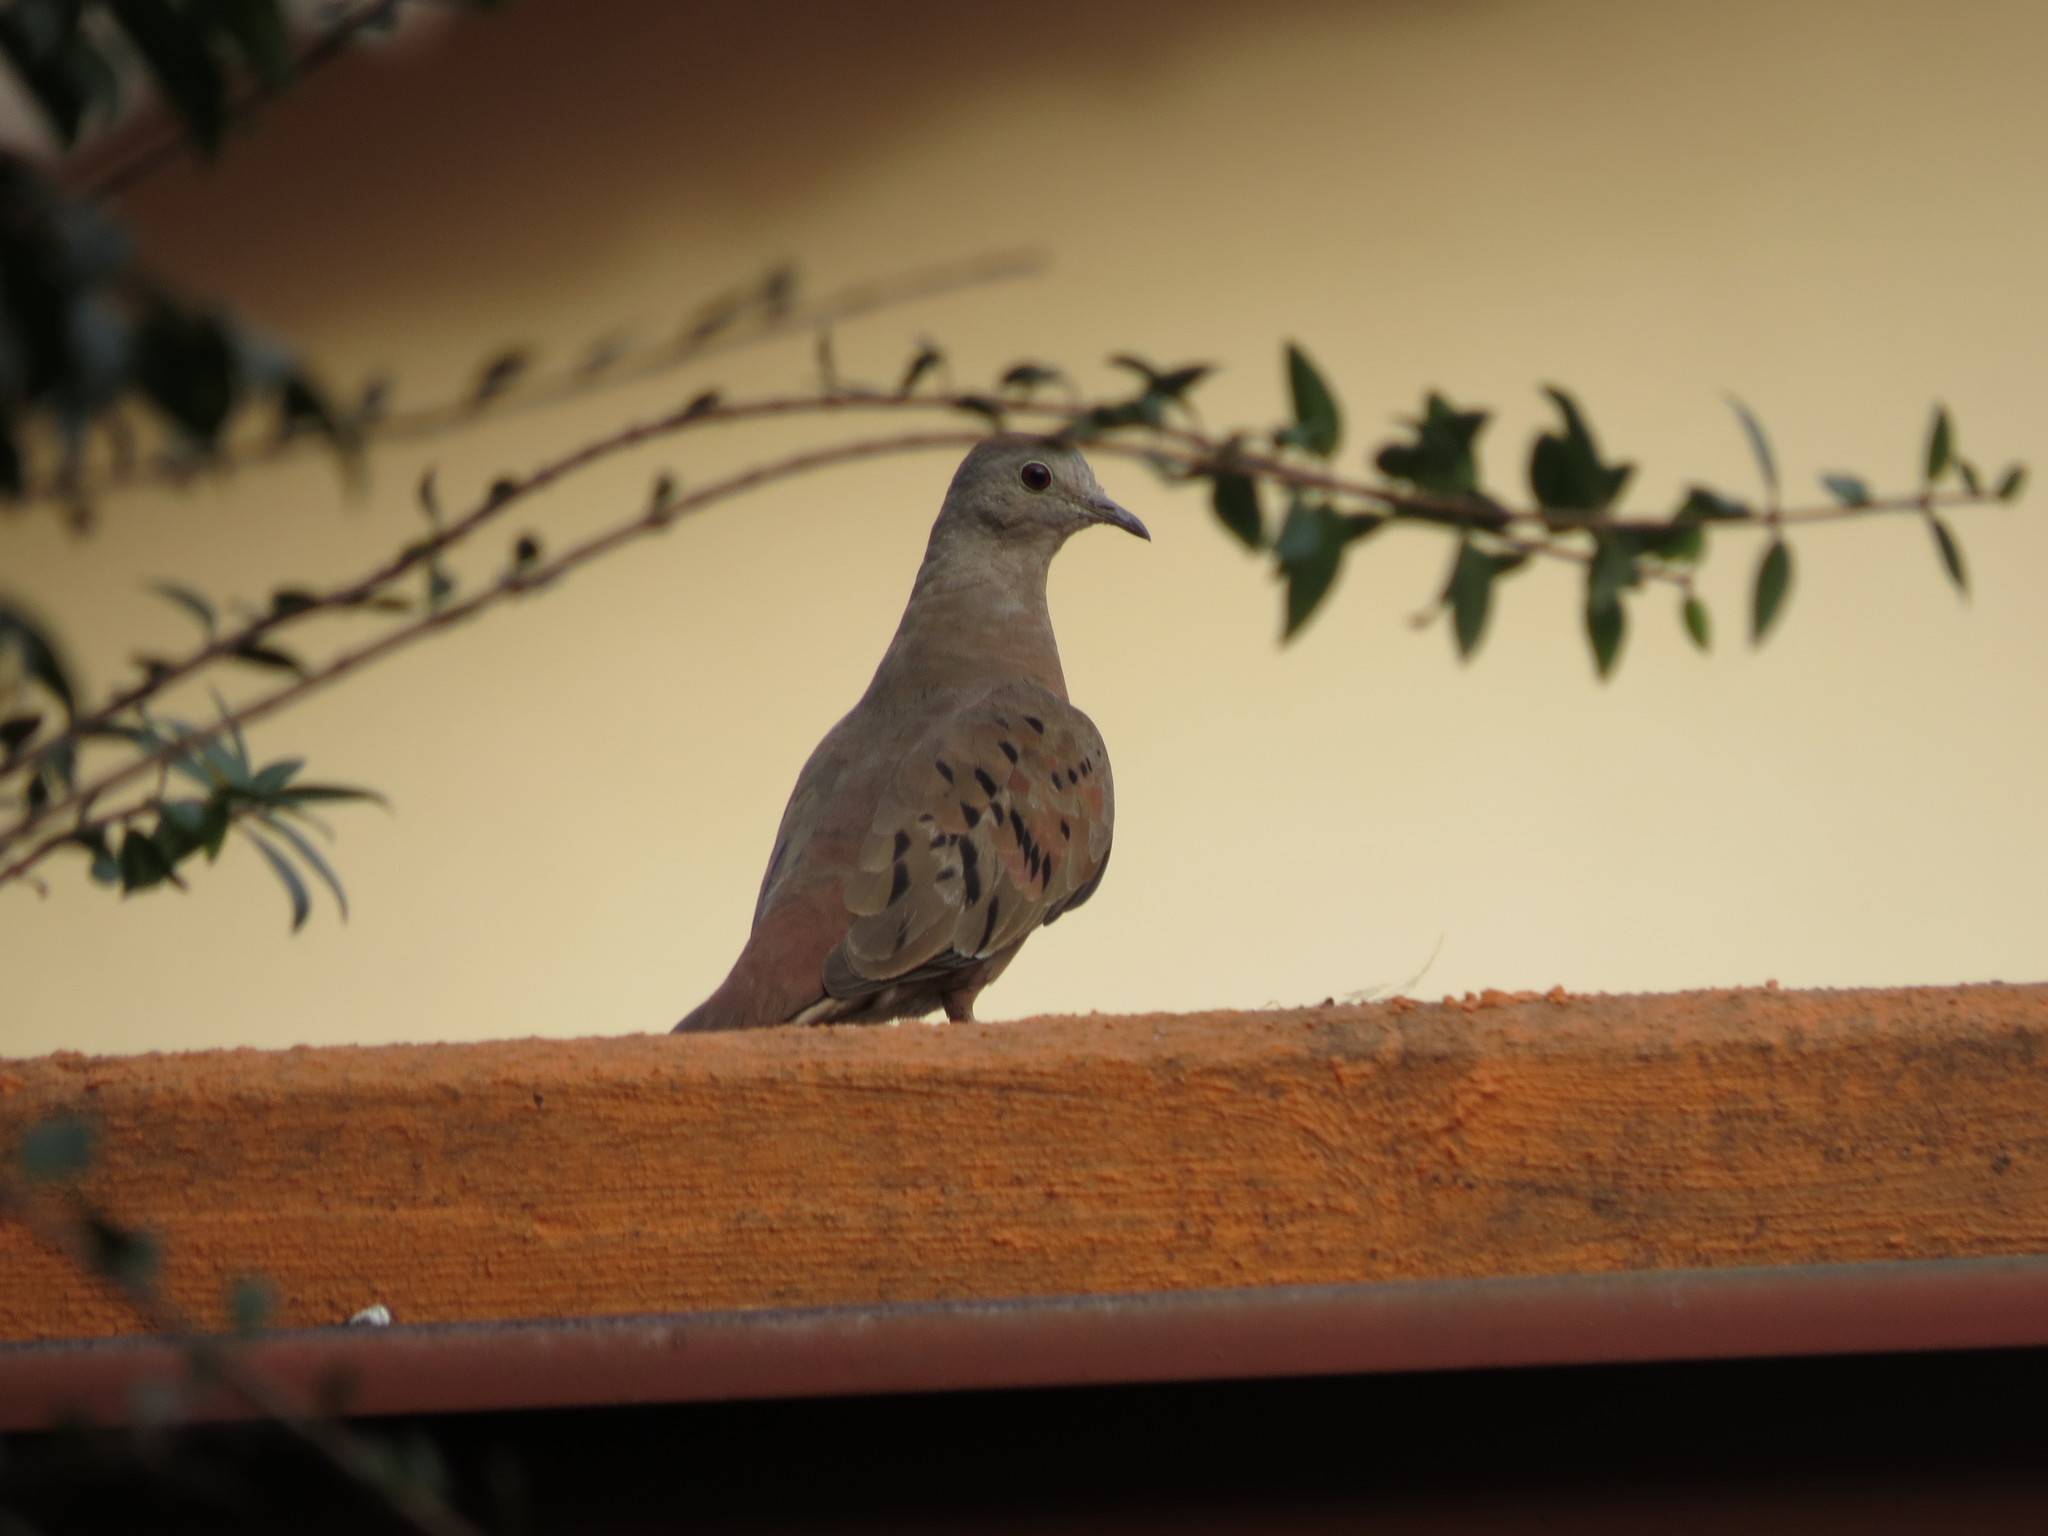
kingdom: Animalia
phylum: Chordata
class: Aves
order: Columbiformes
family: Columbidae
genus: Columbina
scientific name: Columbina talpacoti
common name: Ruddy ground dove
